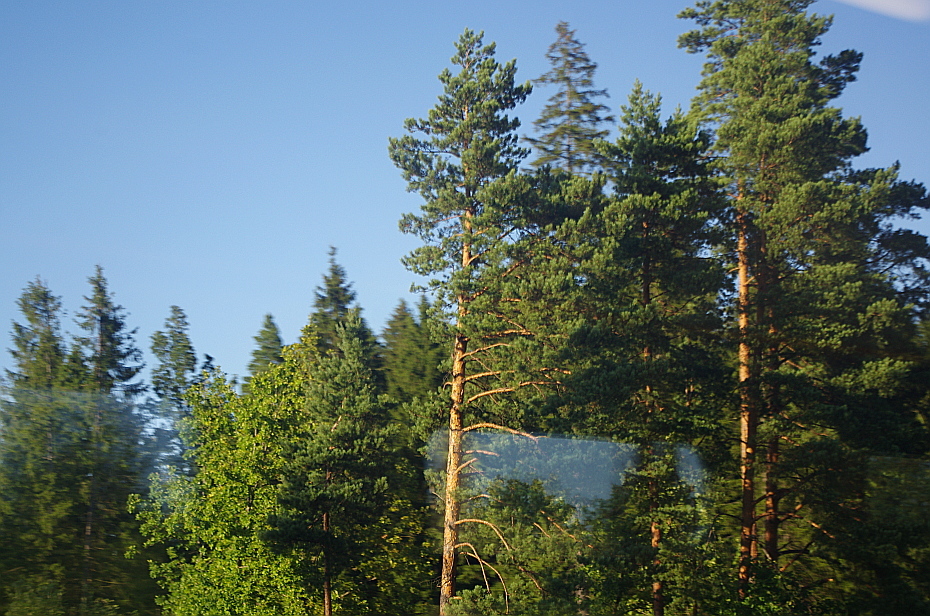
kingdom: Plantae
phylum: Tracheophyta
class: Pinopsida
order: Pinales
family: Pinaceae
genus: Pinus
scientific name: Pinus sylvestris
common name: Scots pine
